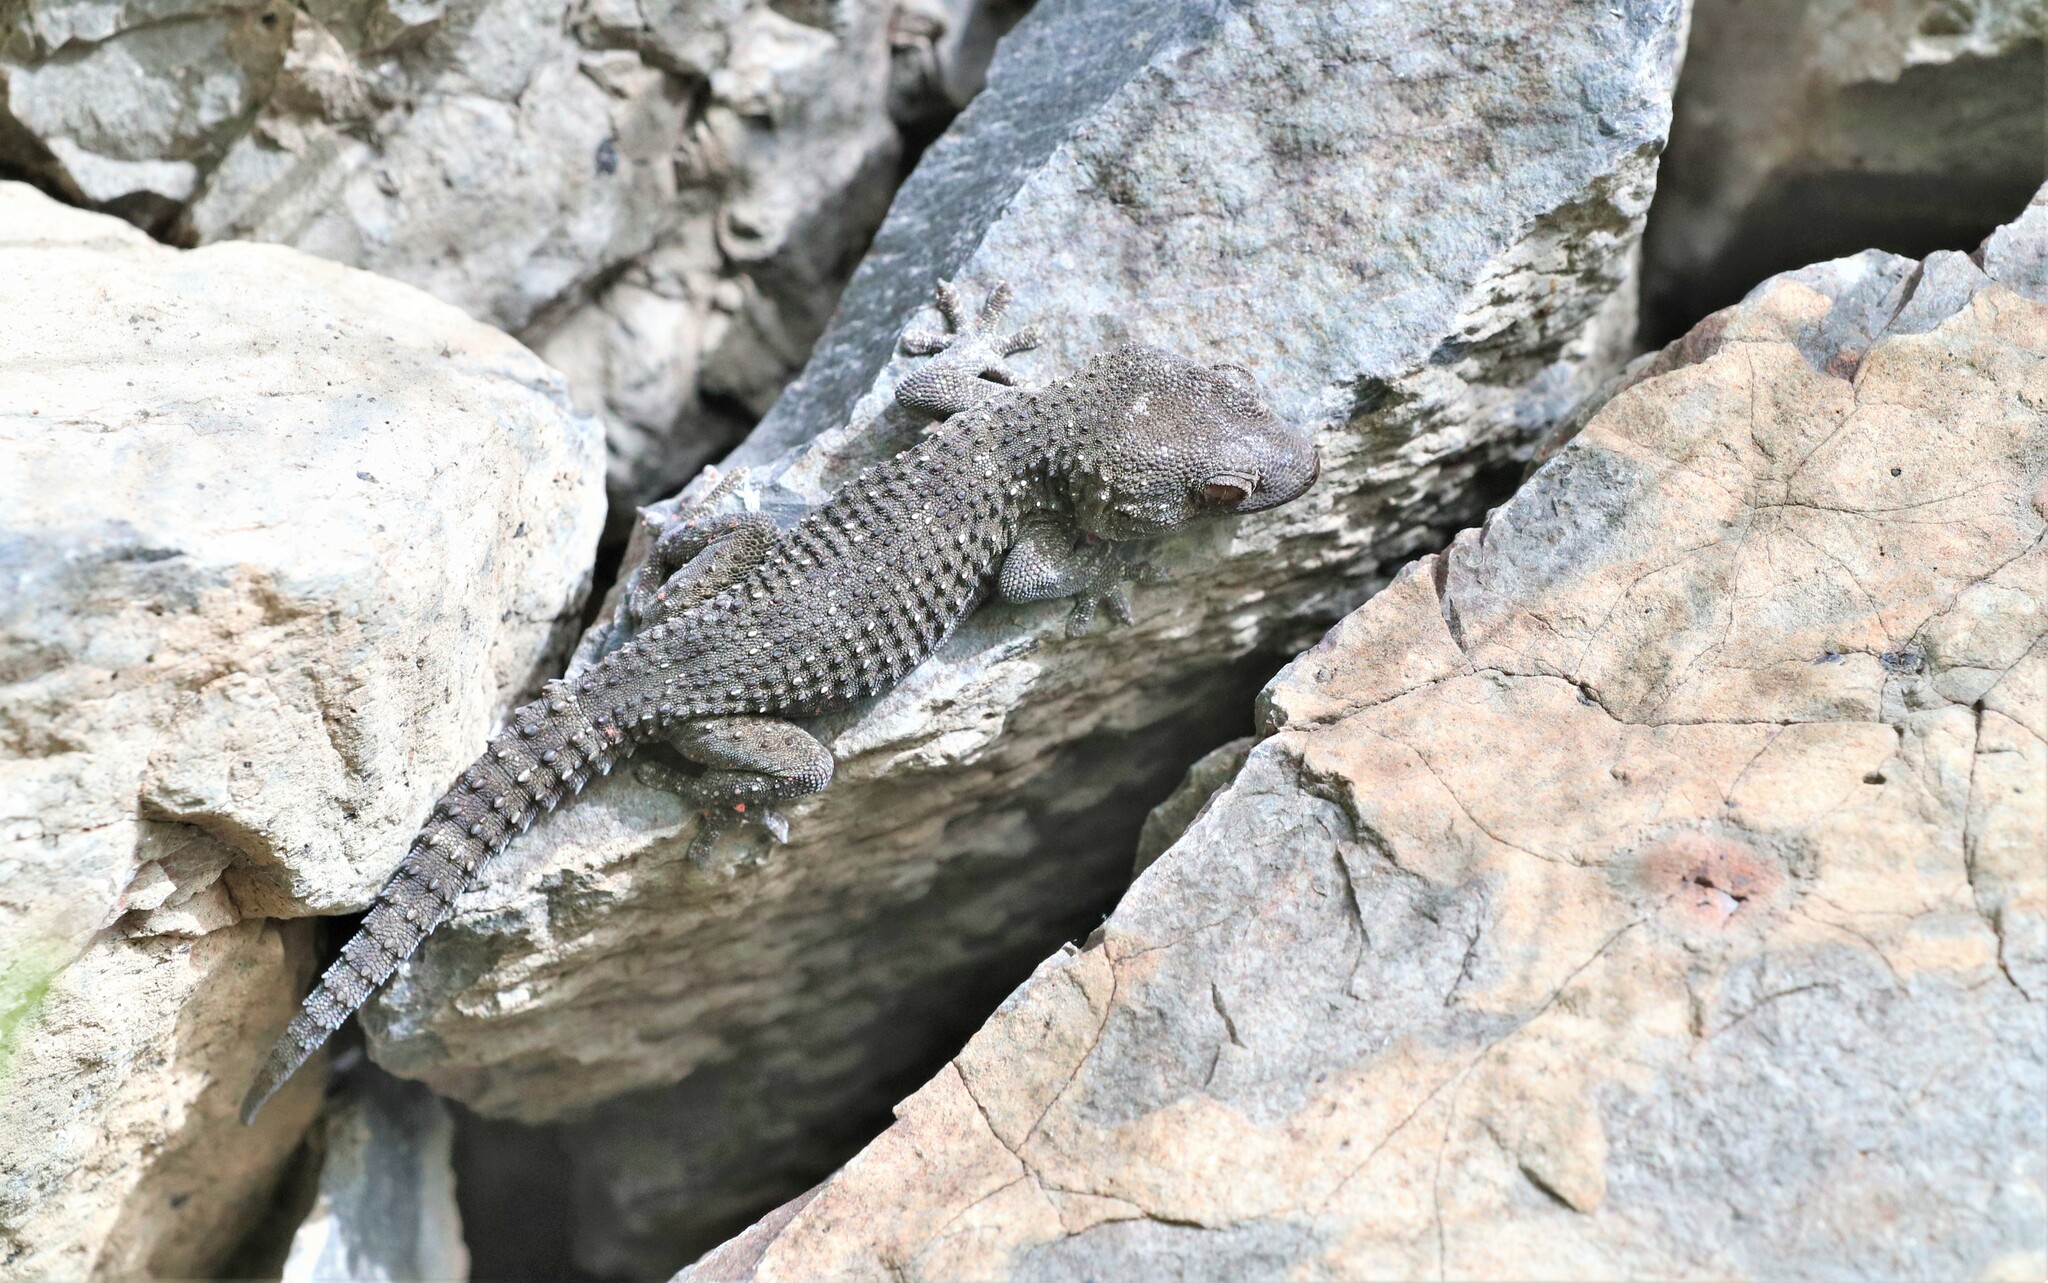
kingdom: Animalia
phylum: Chordata
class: Squamata
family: Phyllodactylidae
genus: Tarentola
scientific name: Tarentola gomerensis
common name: Gomero wall gecko
